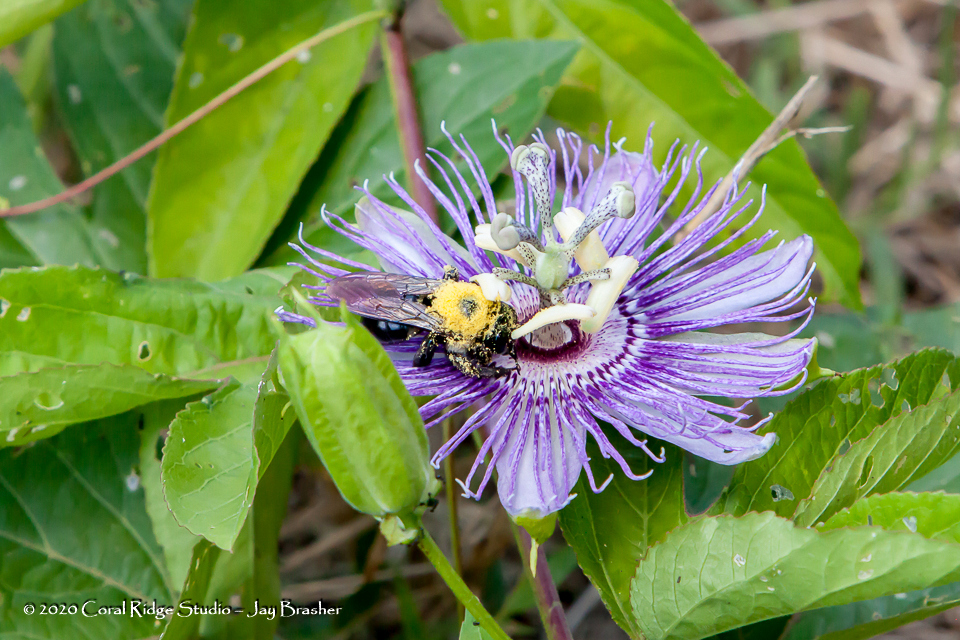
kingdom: Animalia
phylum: Arthropoda
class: Insecta
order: Hymenoptera
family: Apidae
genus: Xylocopa
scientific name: Xylocopa virginica
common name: Carpenter bee
